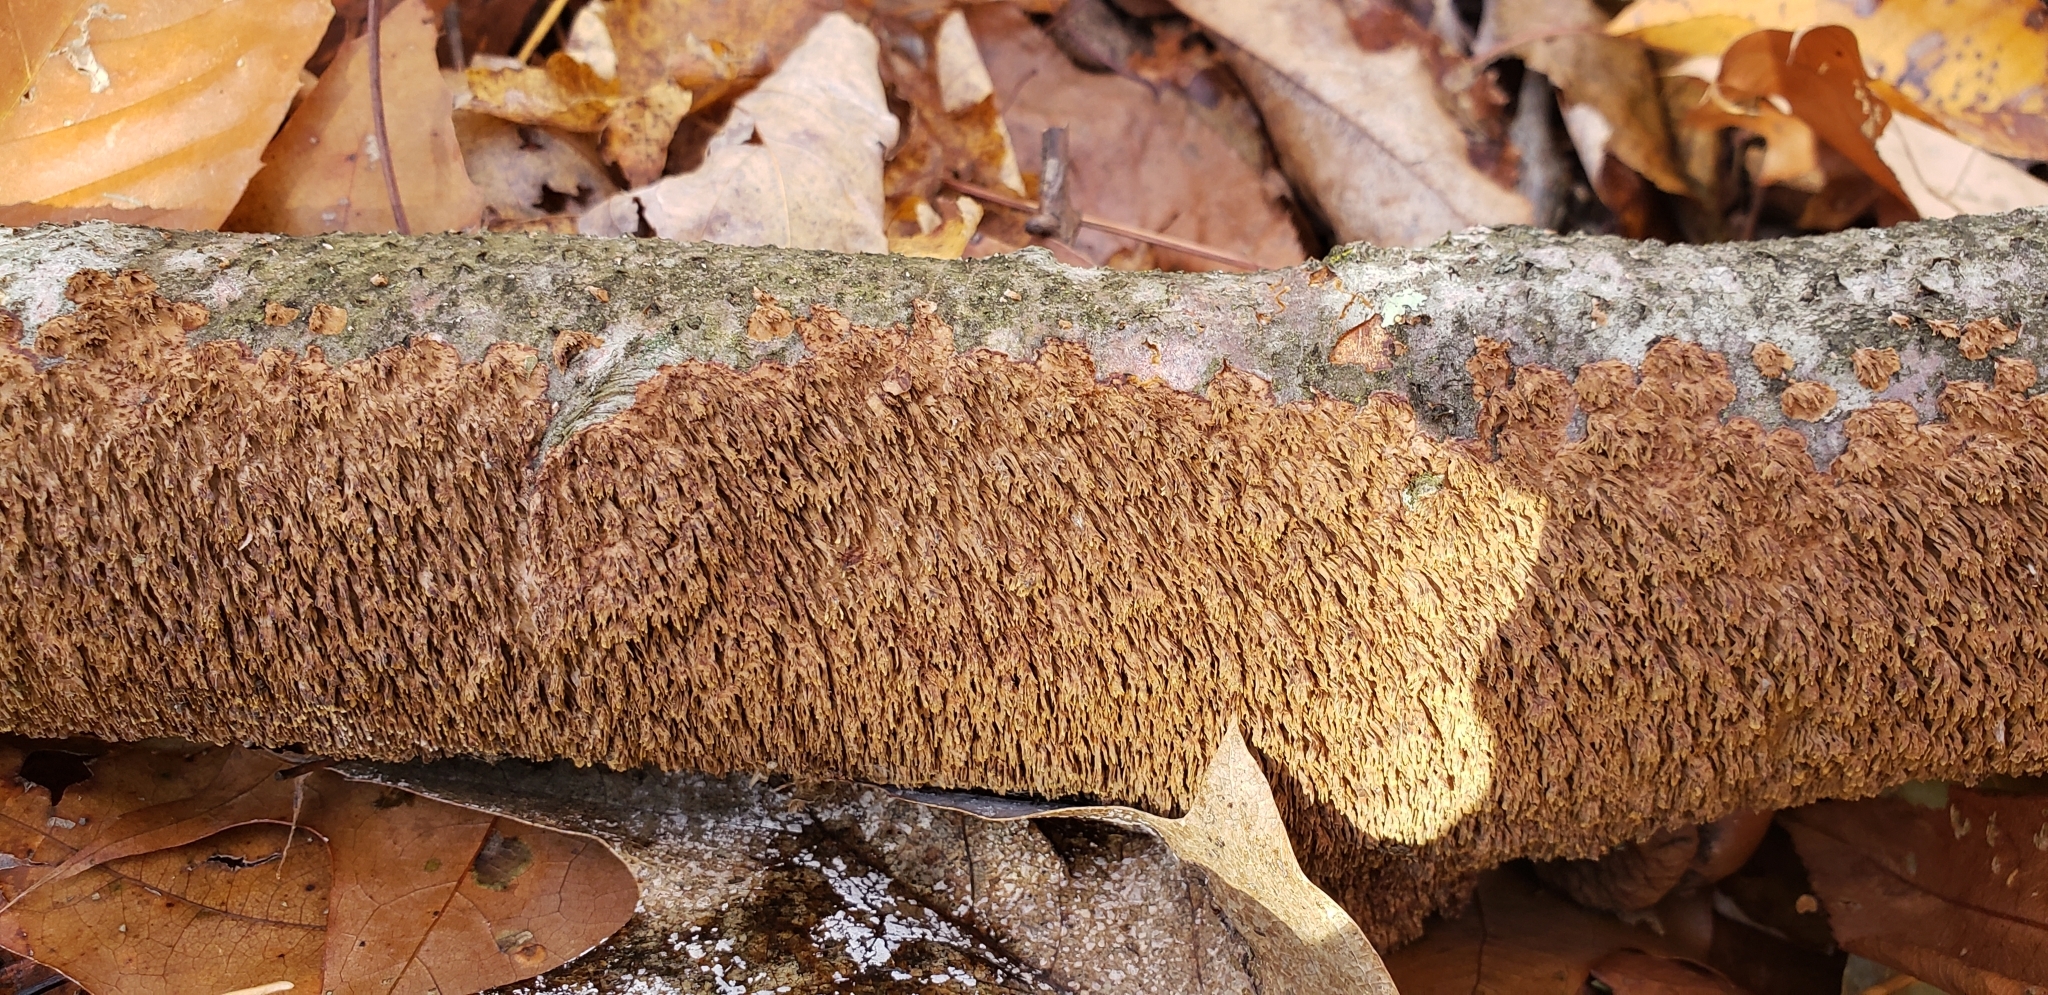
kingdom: Fungi
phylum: Basidiomycota
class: Agaricomycetes
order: Hymenochaetales
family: Hymenochaetaceae
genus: Hydnoporia
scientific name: Hydnoporia olivacea
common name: Brown-toothed crust fungus
